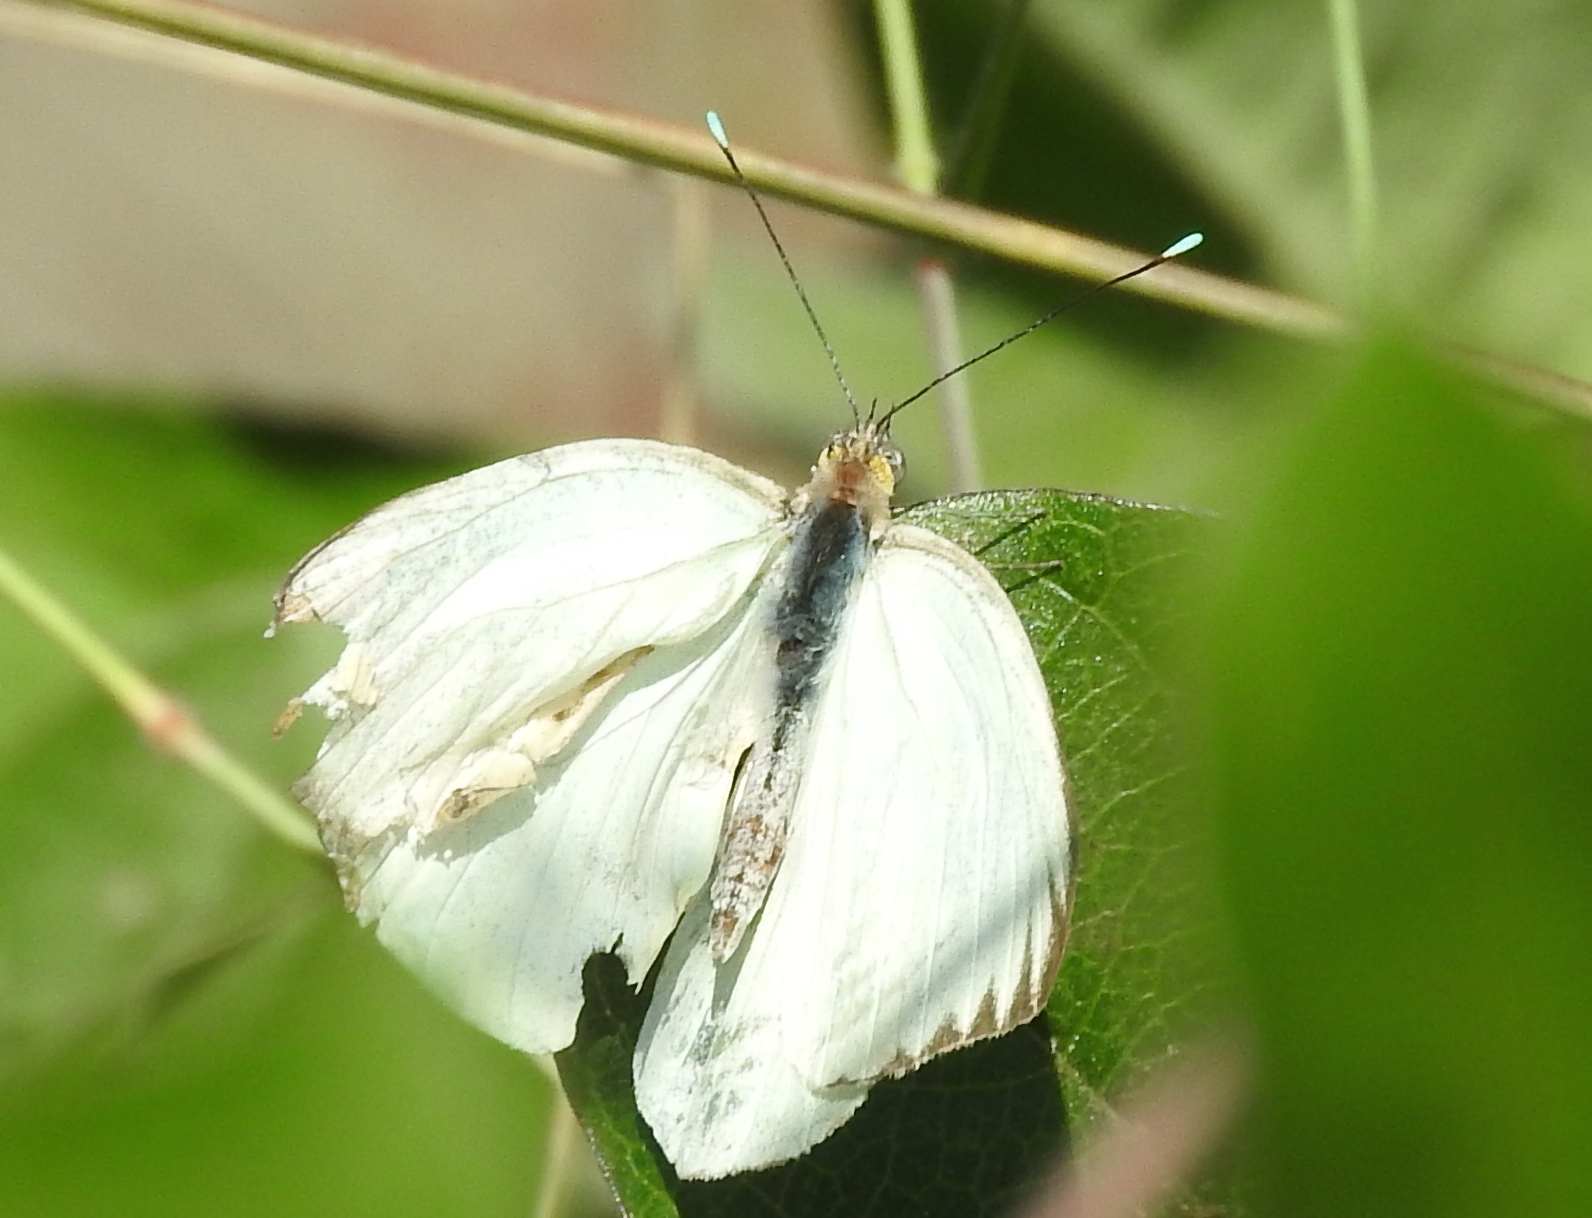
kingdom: Animalia
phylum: Arthropoda
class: Insecta
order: Lepidoptera
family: Pieridae
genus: Ascia
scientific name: Ascia monuste
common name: Great southern white
